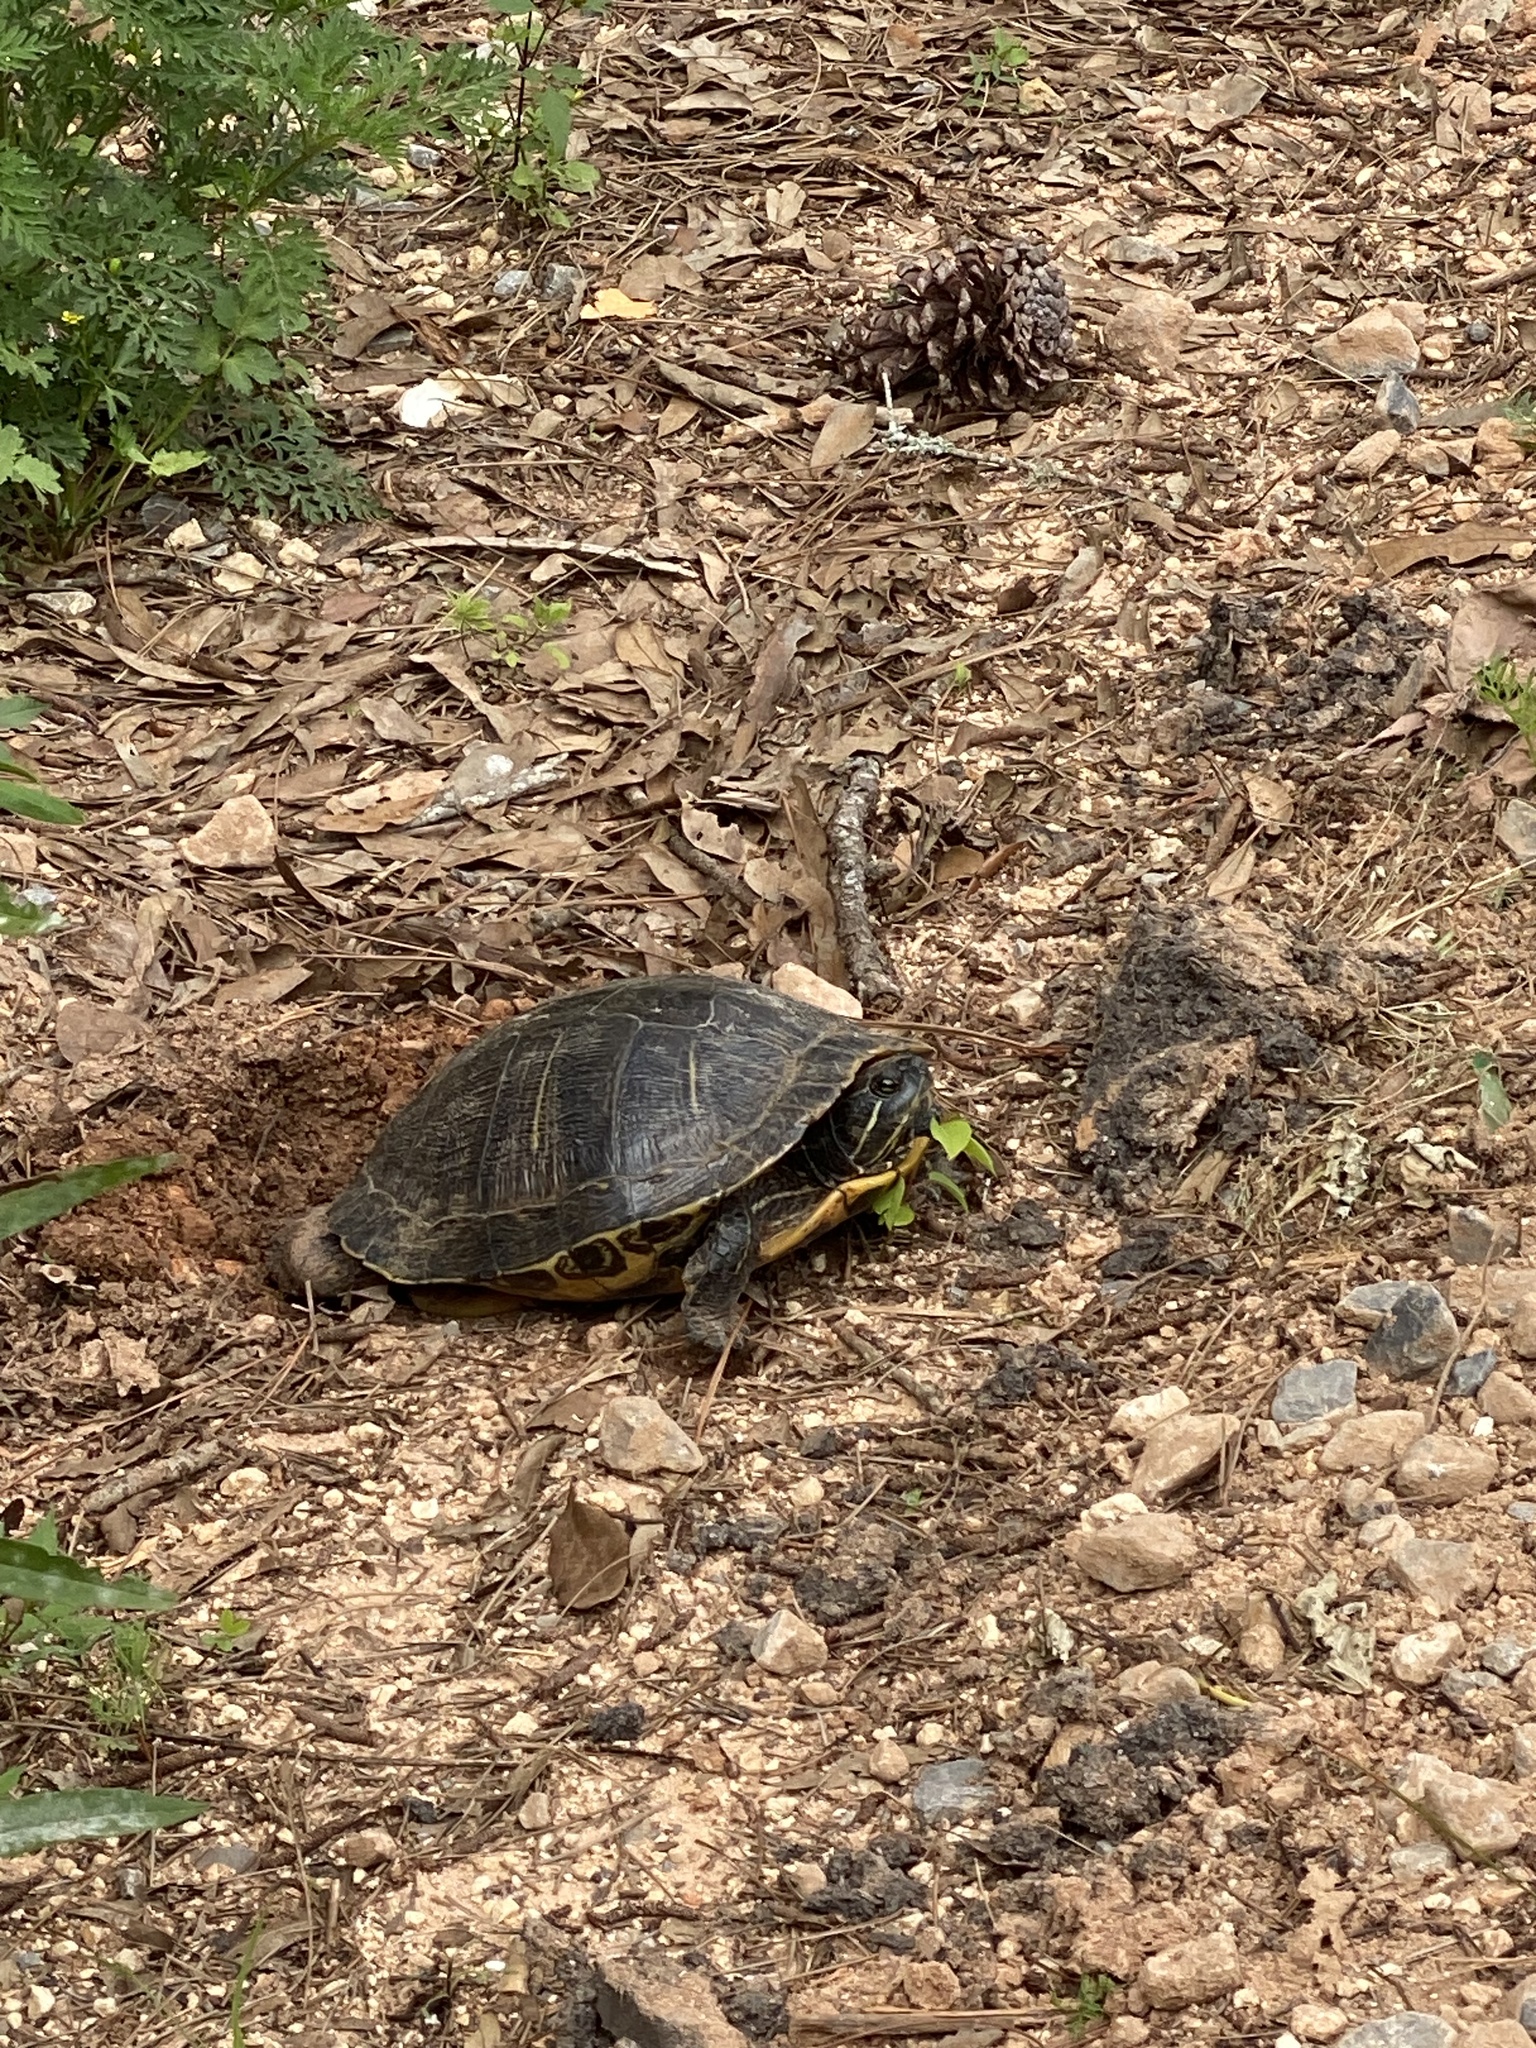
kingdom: Animalia
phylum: Chordata
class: Testudines
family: Emydidae
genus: Trachemys
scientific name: Trachemys scripta
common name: Slider
